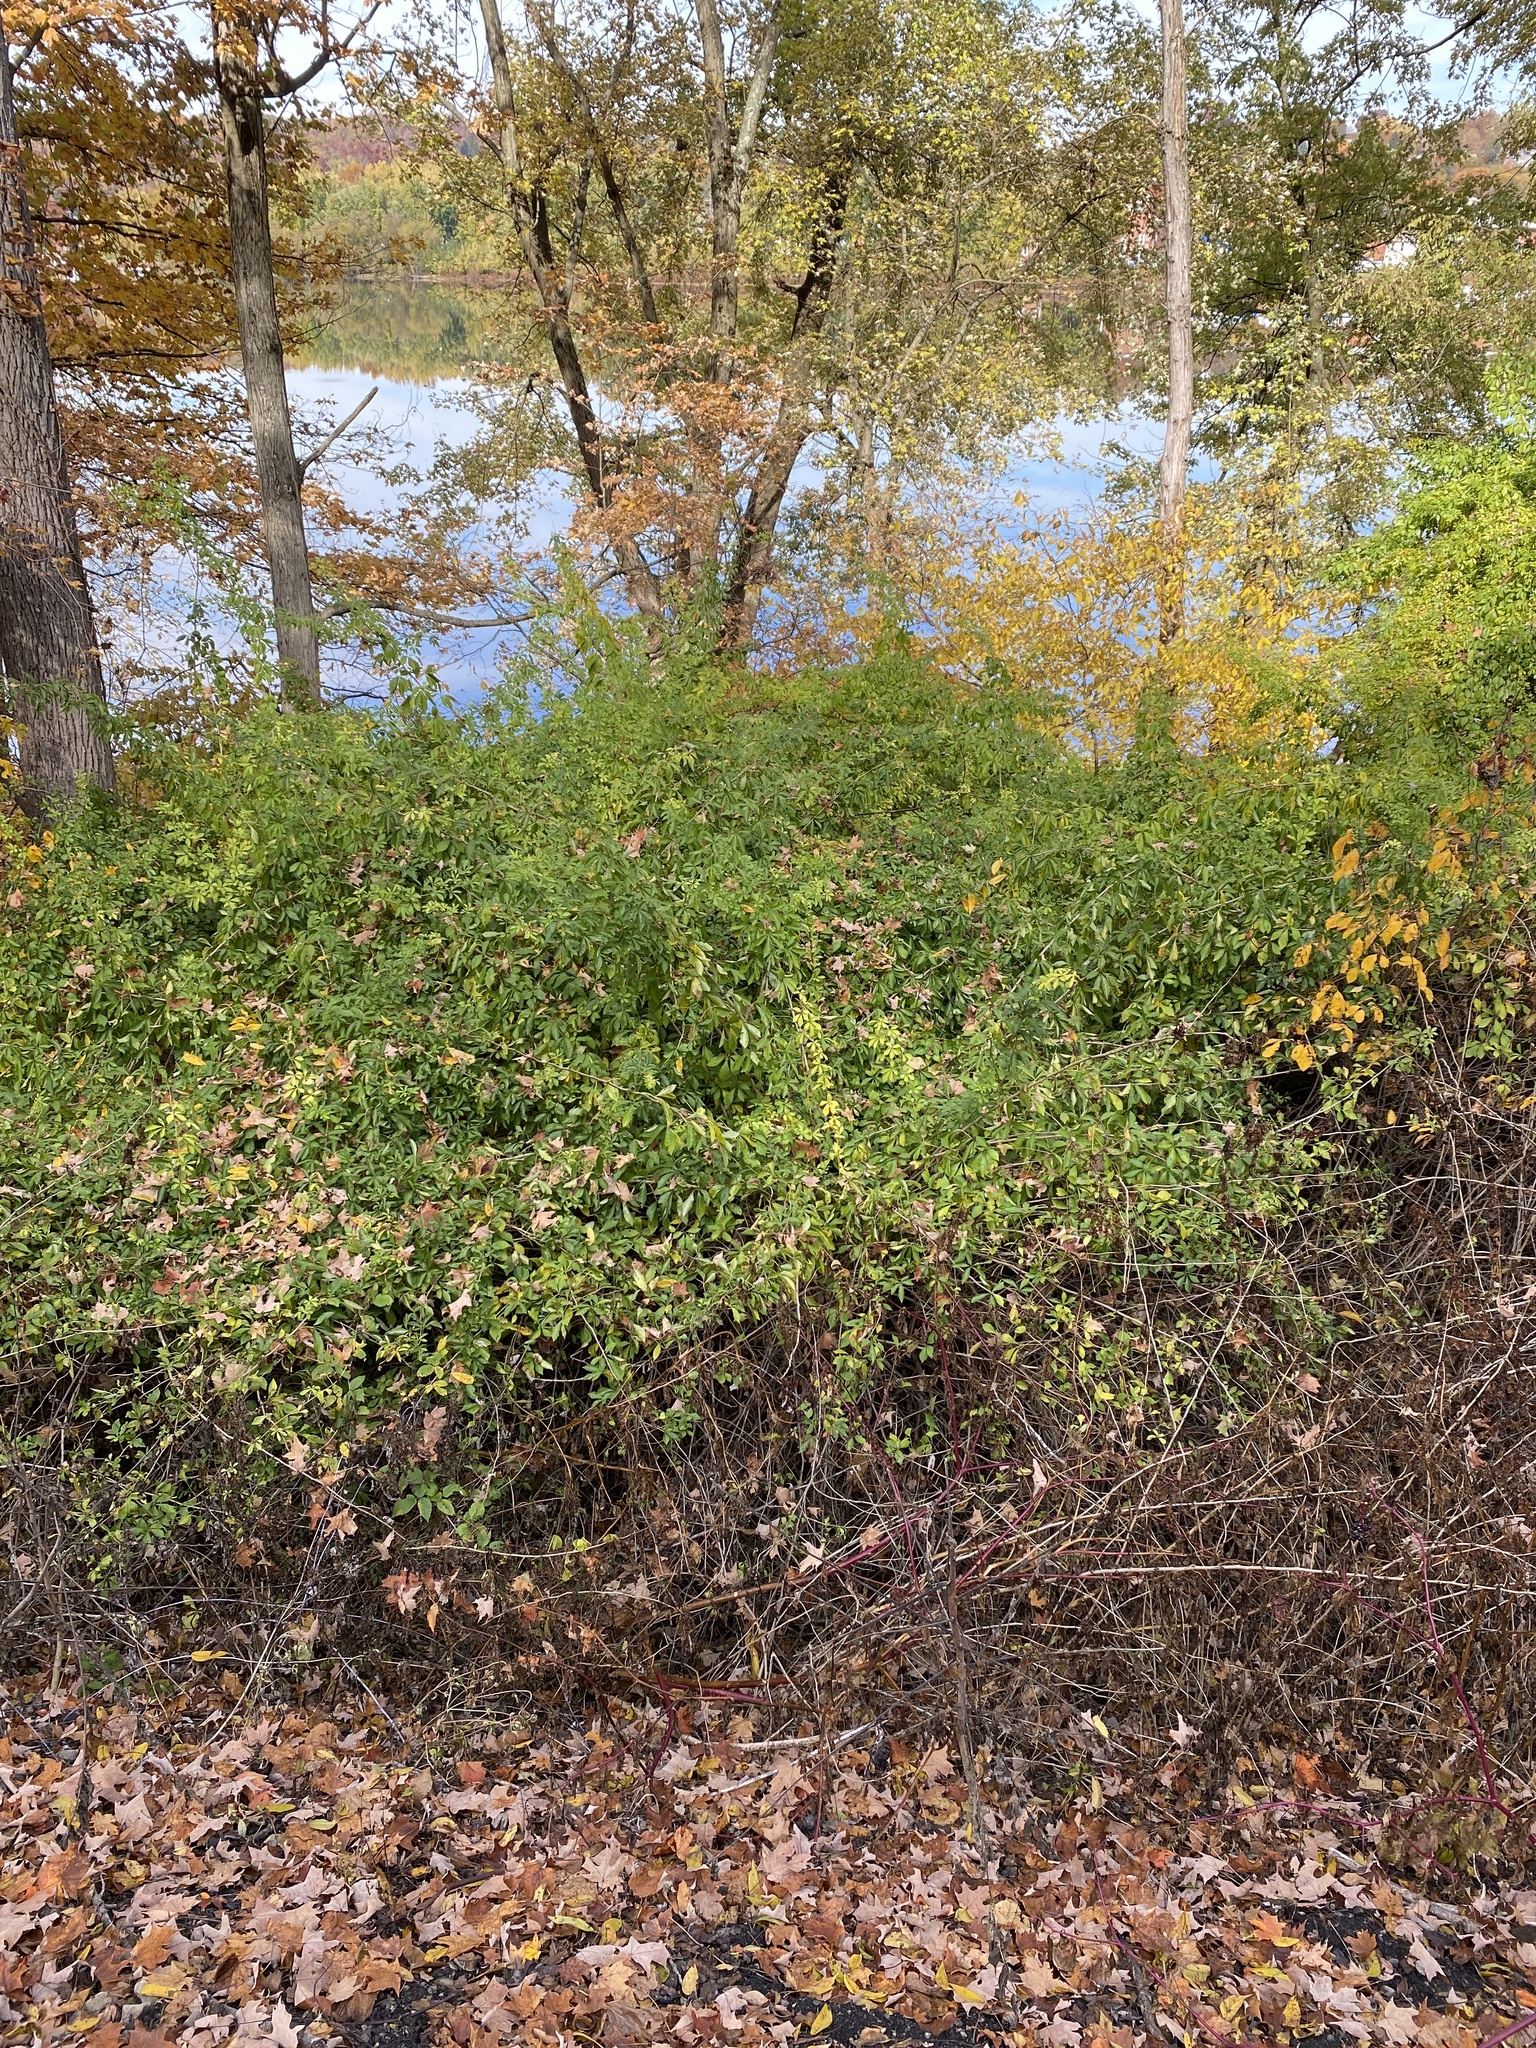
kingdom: Plantae
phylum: Tracheophyta
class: Magnoliopsida
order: Apiales
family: Araliaceae
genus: Eleutherococcus
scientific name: Eleutherococcus sieboldianus
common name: Ginseng
